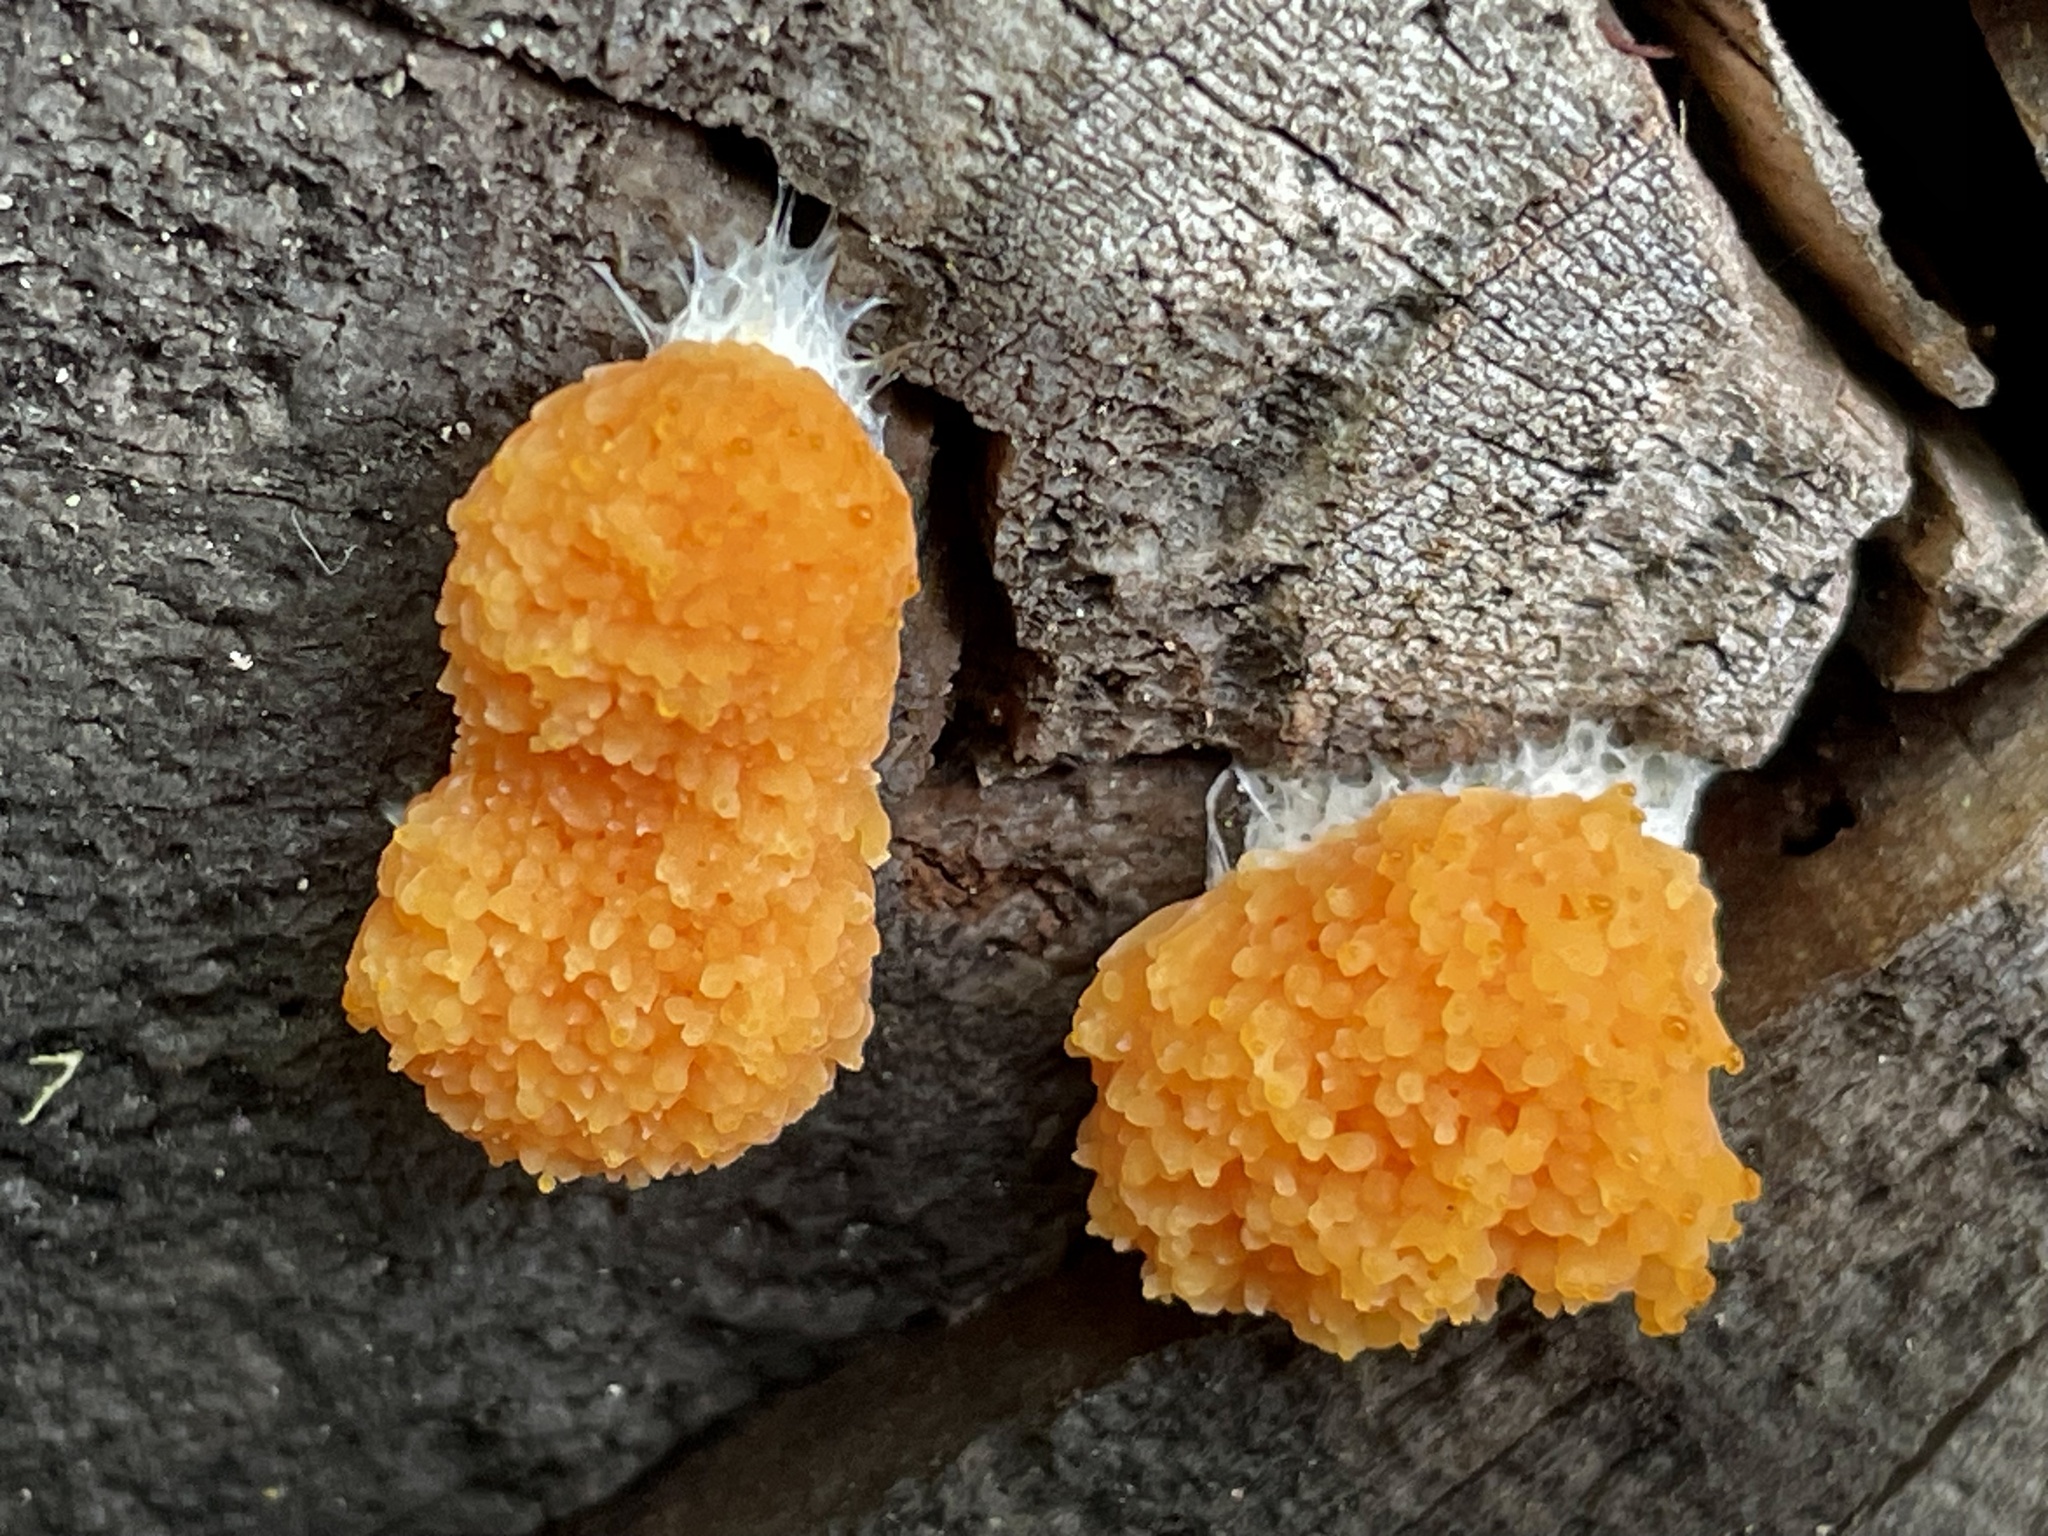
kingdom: Protozoa
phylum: Mycetozoa
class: Myxomycetes
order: Cribrariales
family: Tubiferaceae
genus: Tubifera
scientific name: Tubifera montana
